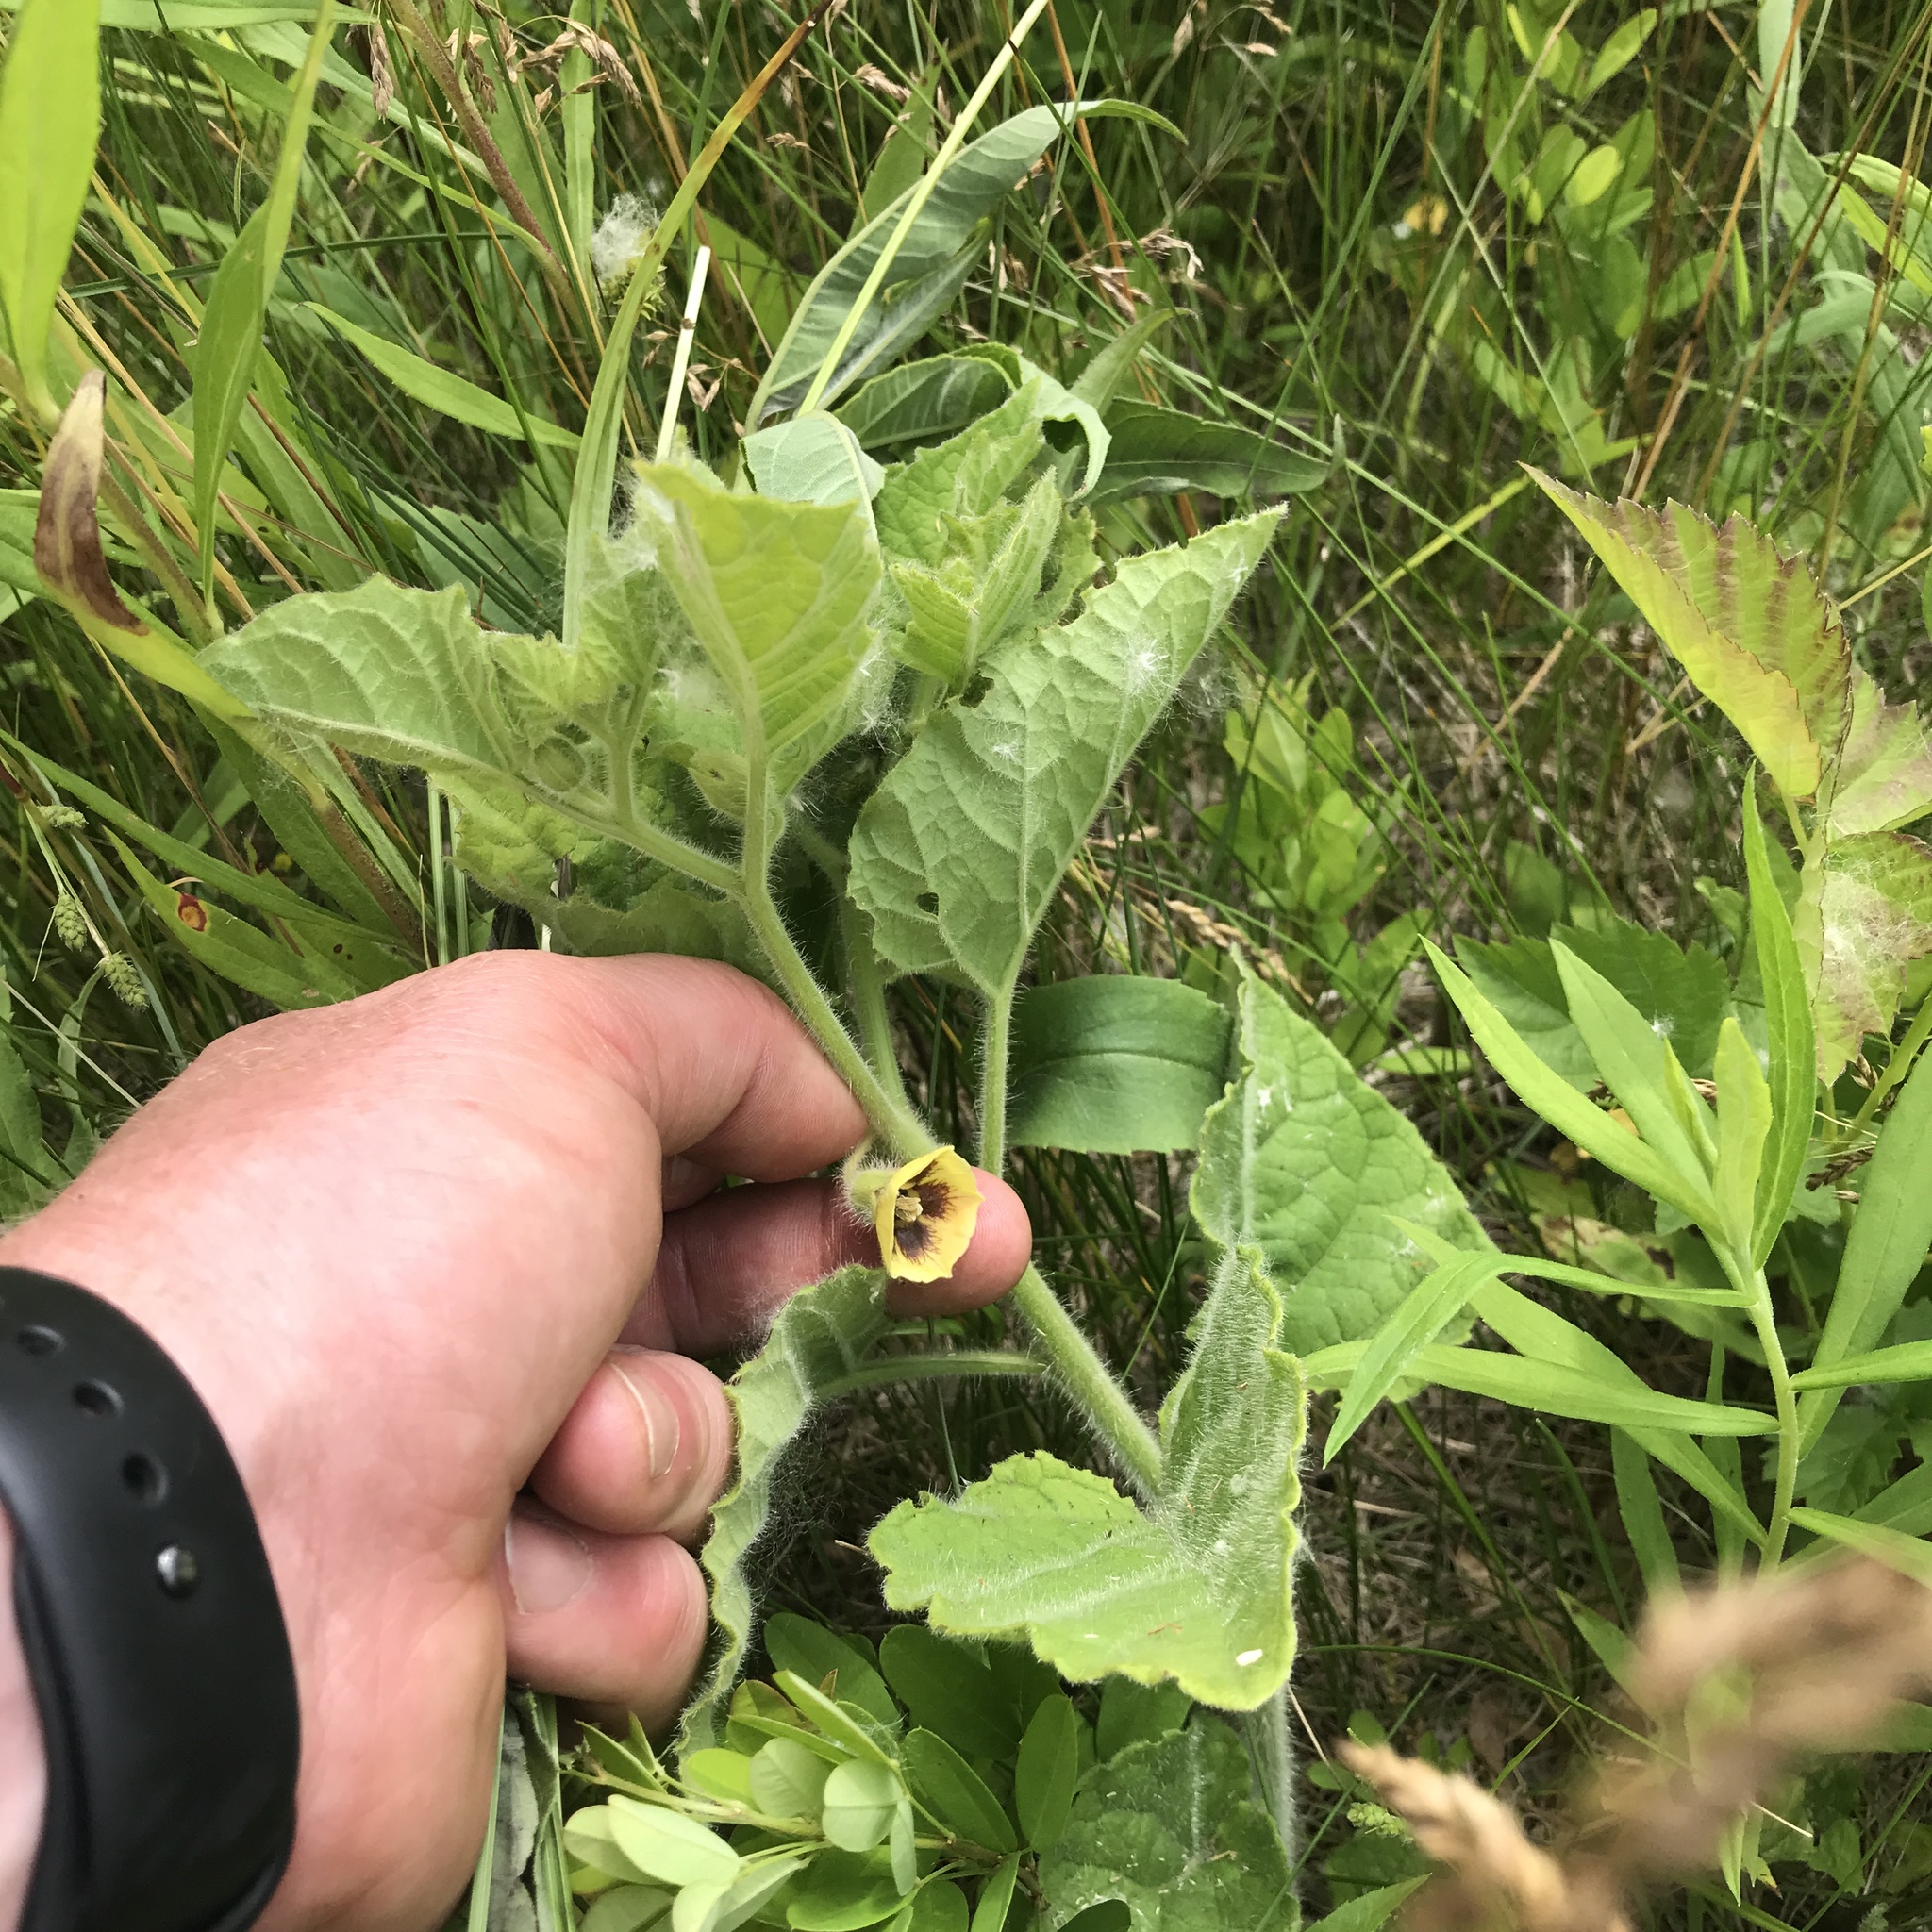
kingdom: Plantae
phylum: Tracheophyta
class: Magnoliopsida
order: Solanales
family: Solanaceae
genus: Physalis
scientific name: Physalis heterophylla
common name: Clammy ground-cherry
